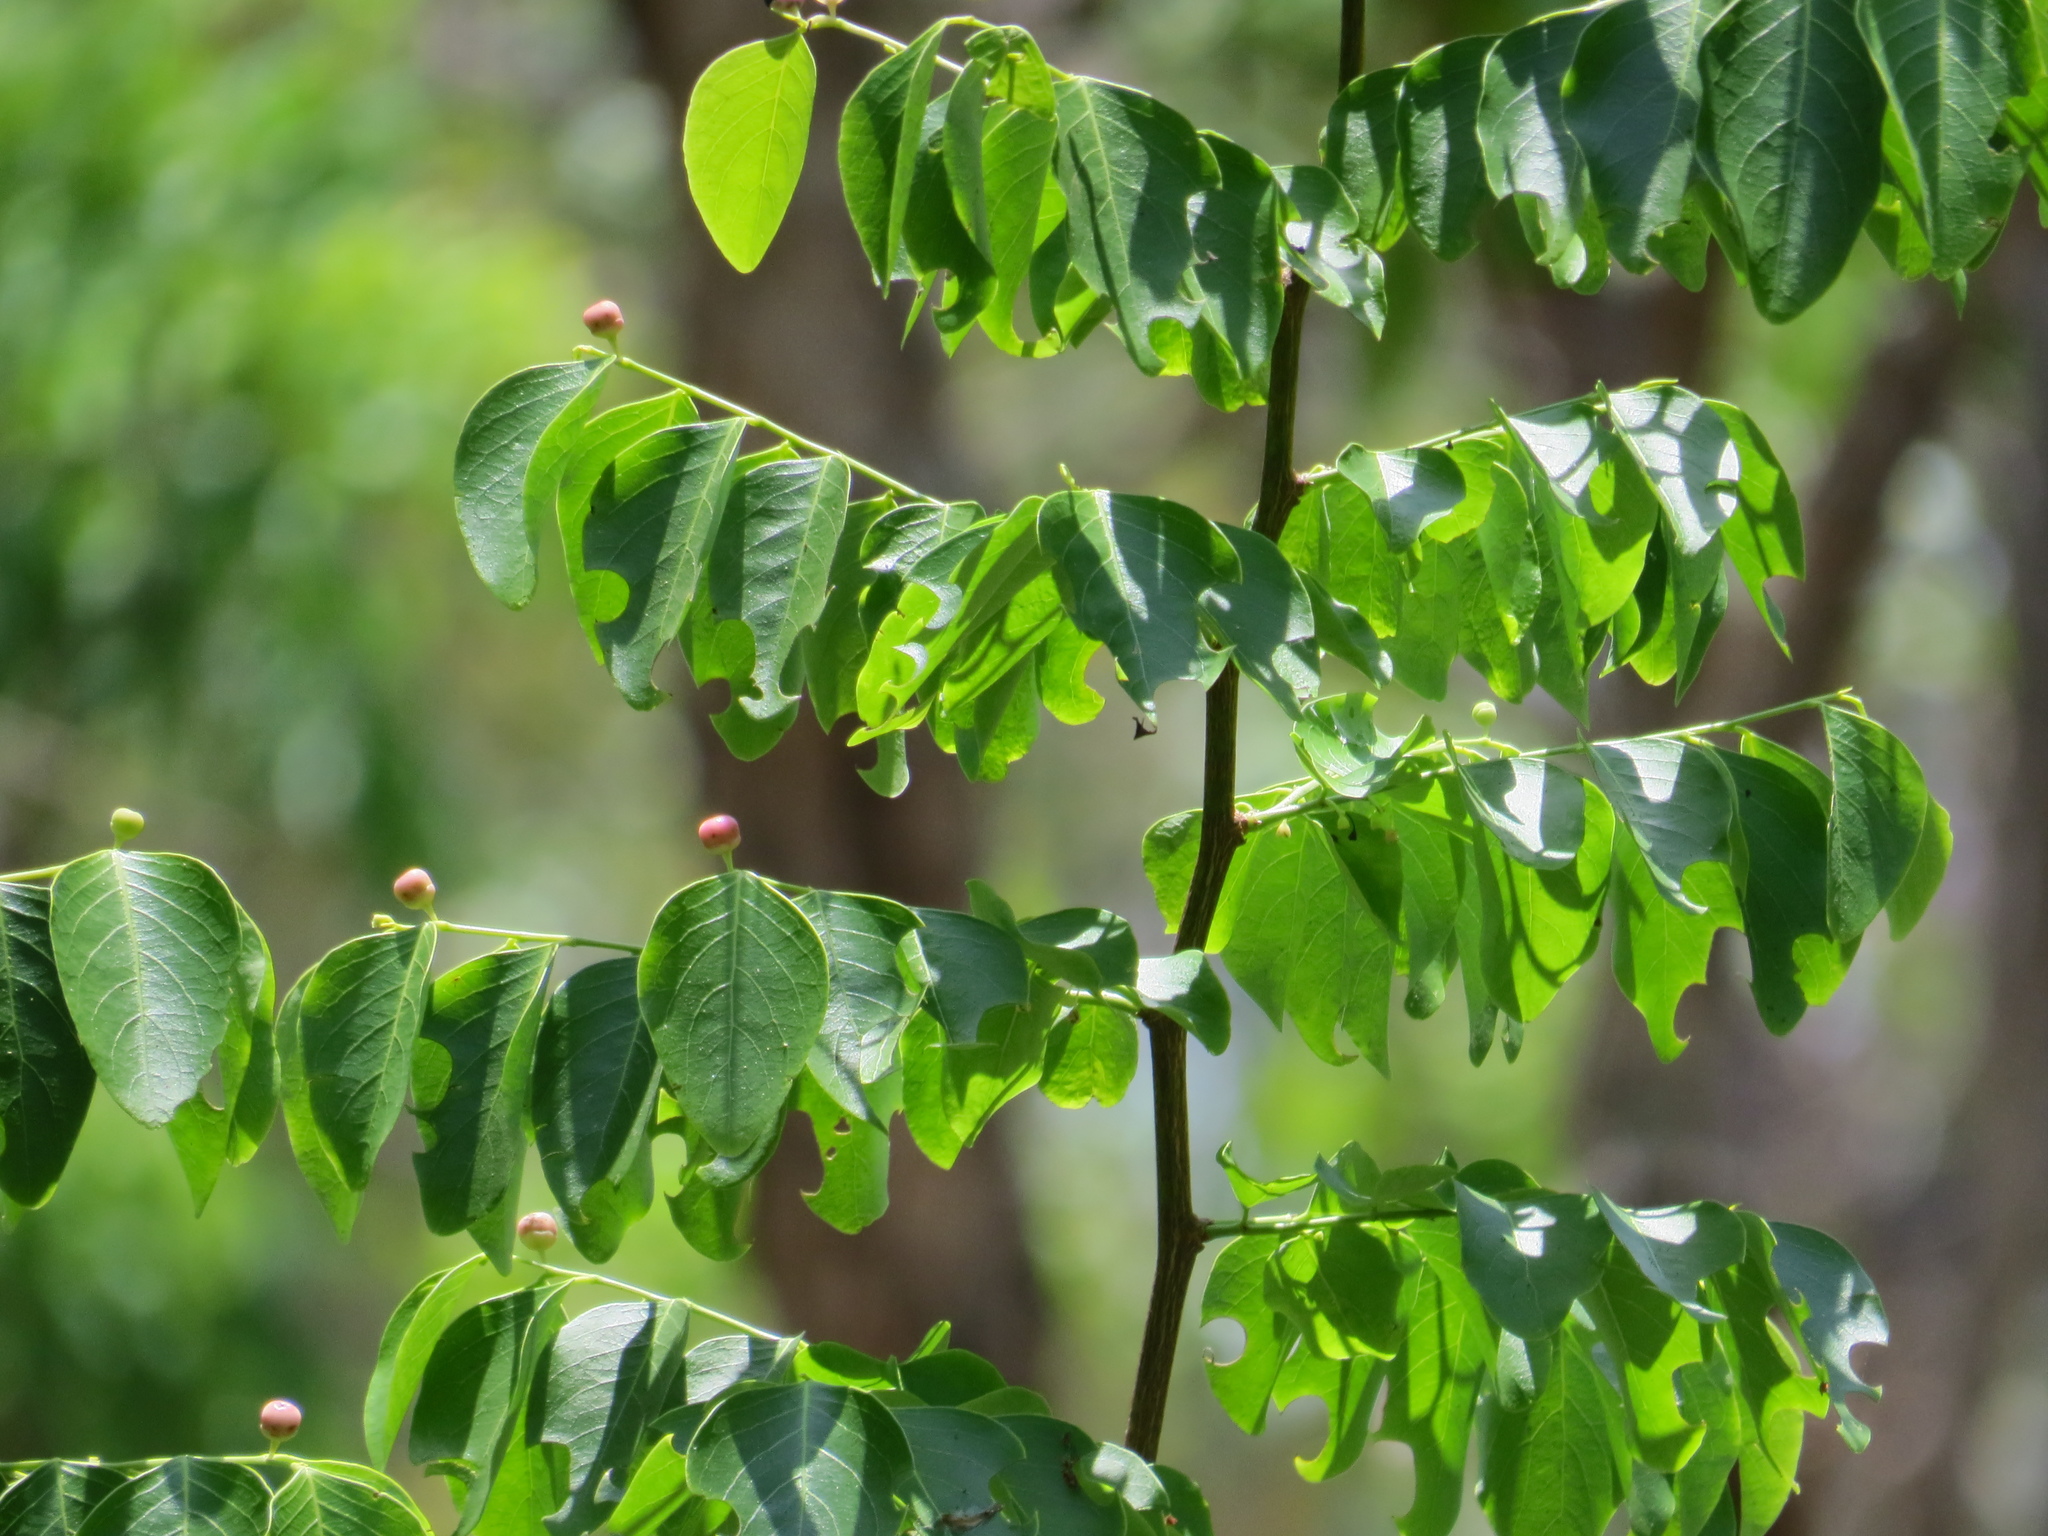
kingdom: Plantae
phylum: Tracheophyta
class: Magnoliopsida
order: Malpighiales
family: Phyllanthaceae
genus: Breynia
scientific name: Breynia oblongifolia
